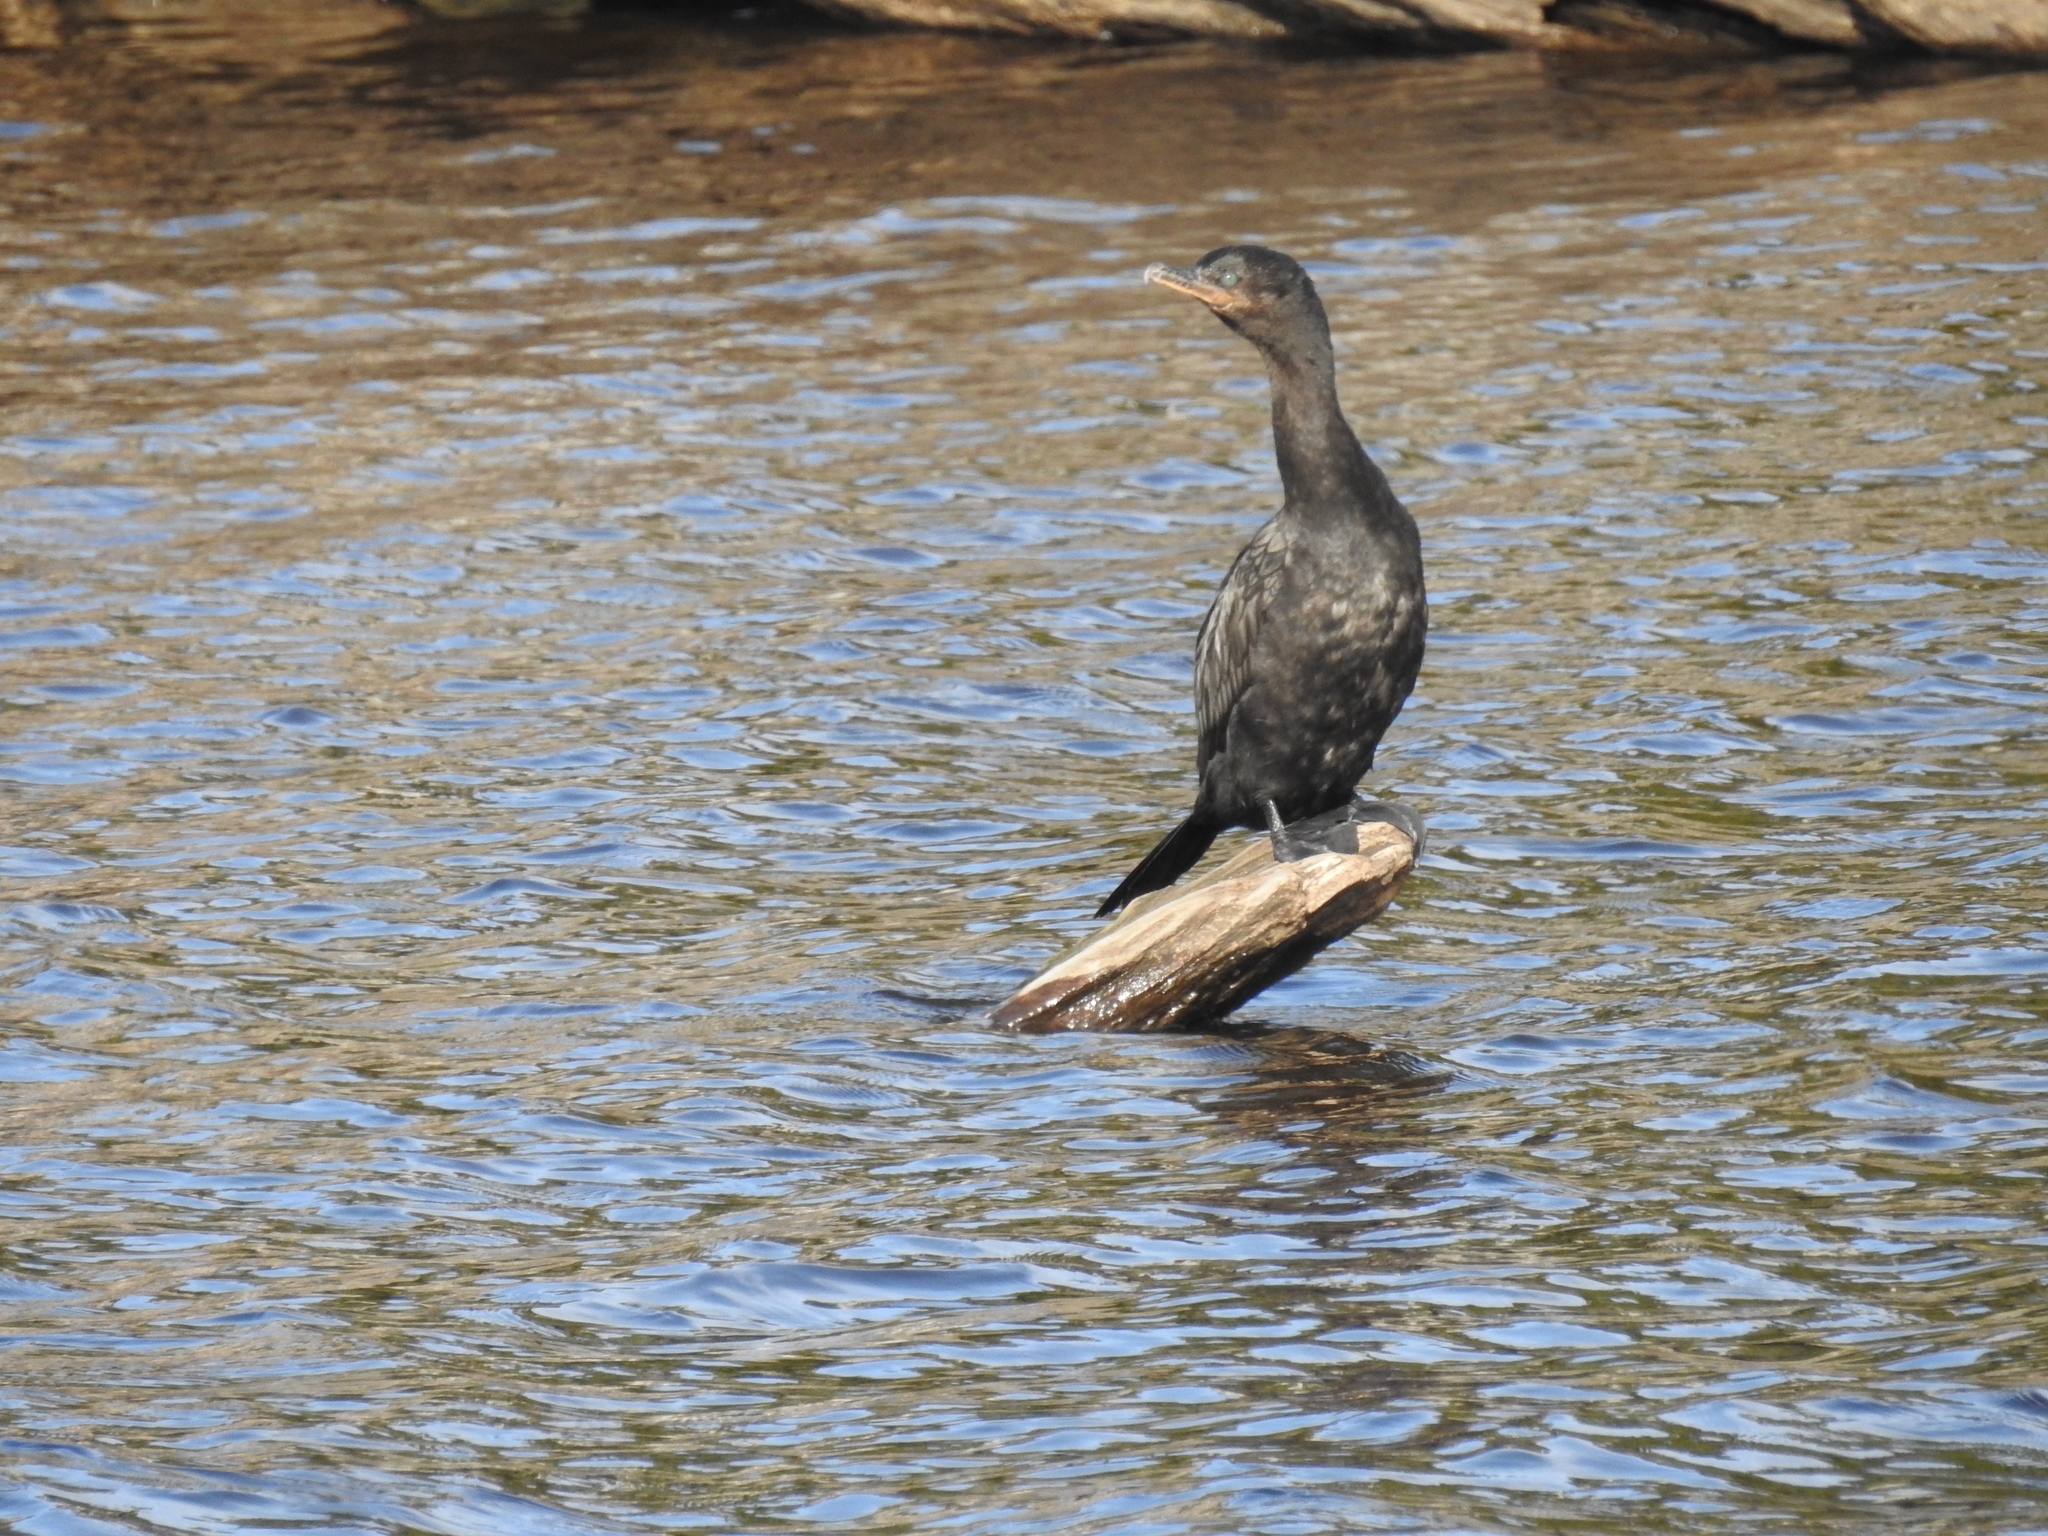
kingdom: Animalia
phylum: Chordata
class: Aves
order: Suliformes
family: Phalacrocoracidae
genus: Phalacrocorax
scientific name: Phalacrocorax brasilianus
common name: Neotropic cormorant
